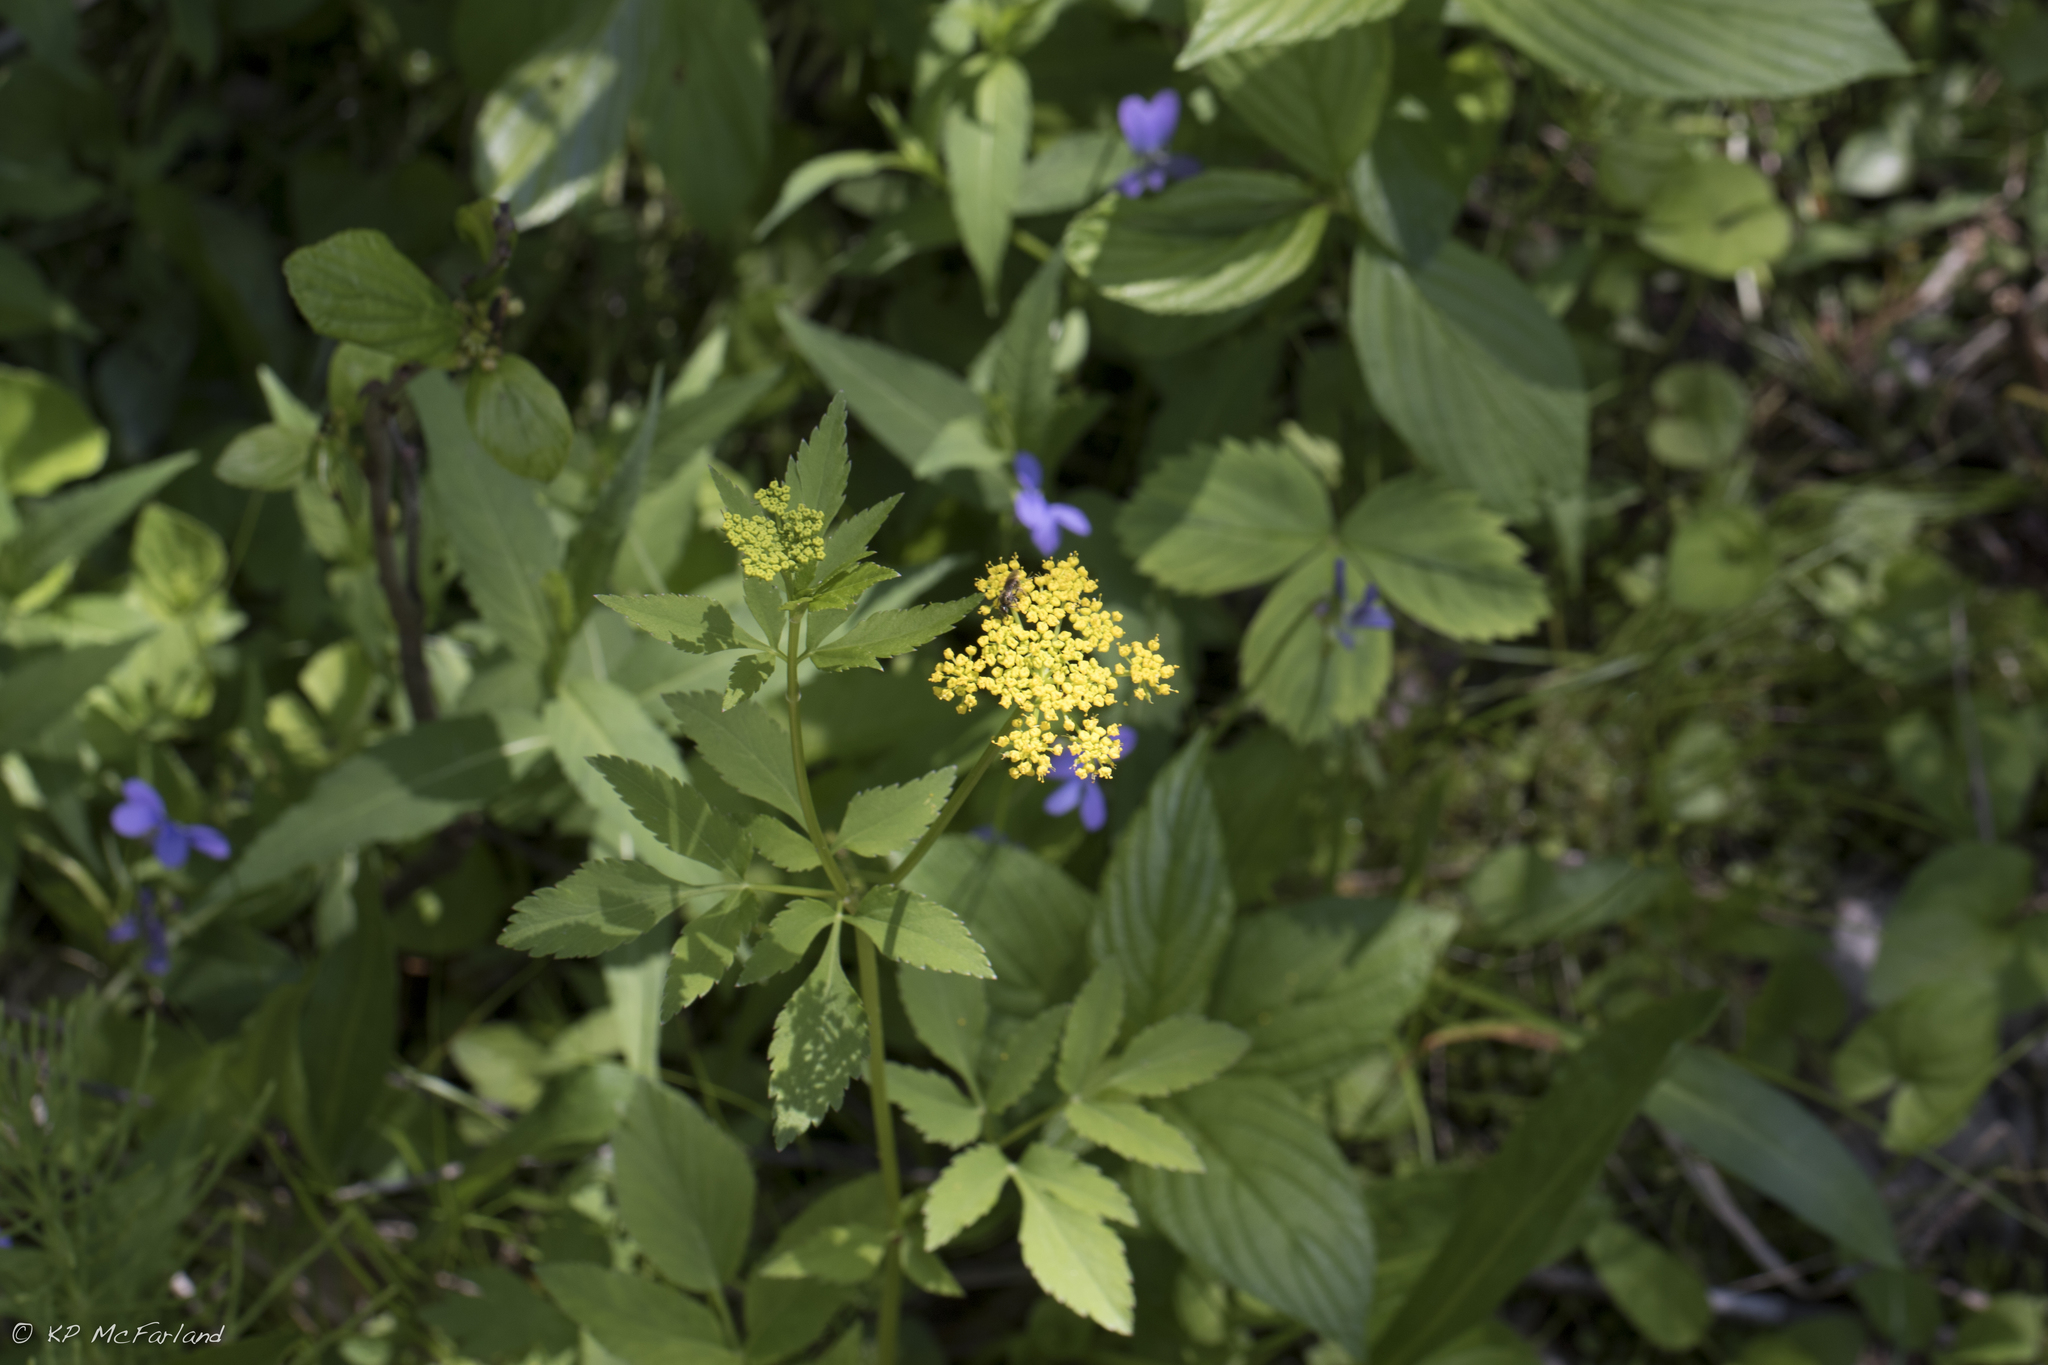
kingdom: Plantae
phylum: Tracheophyta
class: Magnoliopsida
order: Apiales
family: Apiaceae
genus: Zizia
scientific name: Zizia aurea
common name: Golden alexanders
